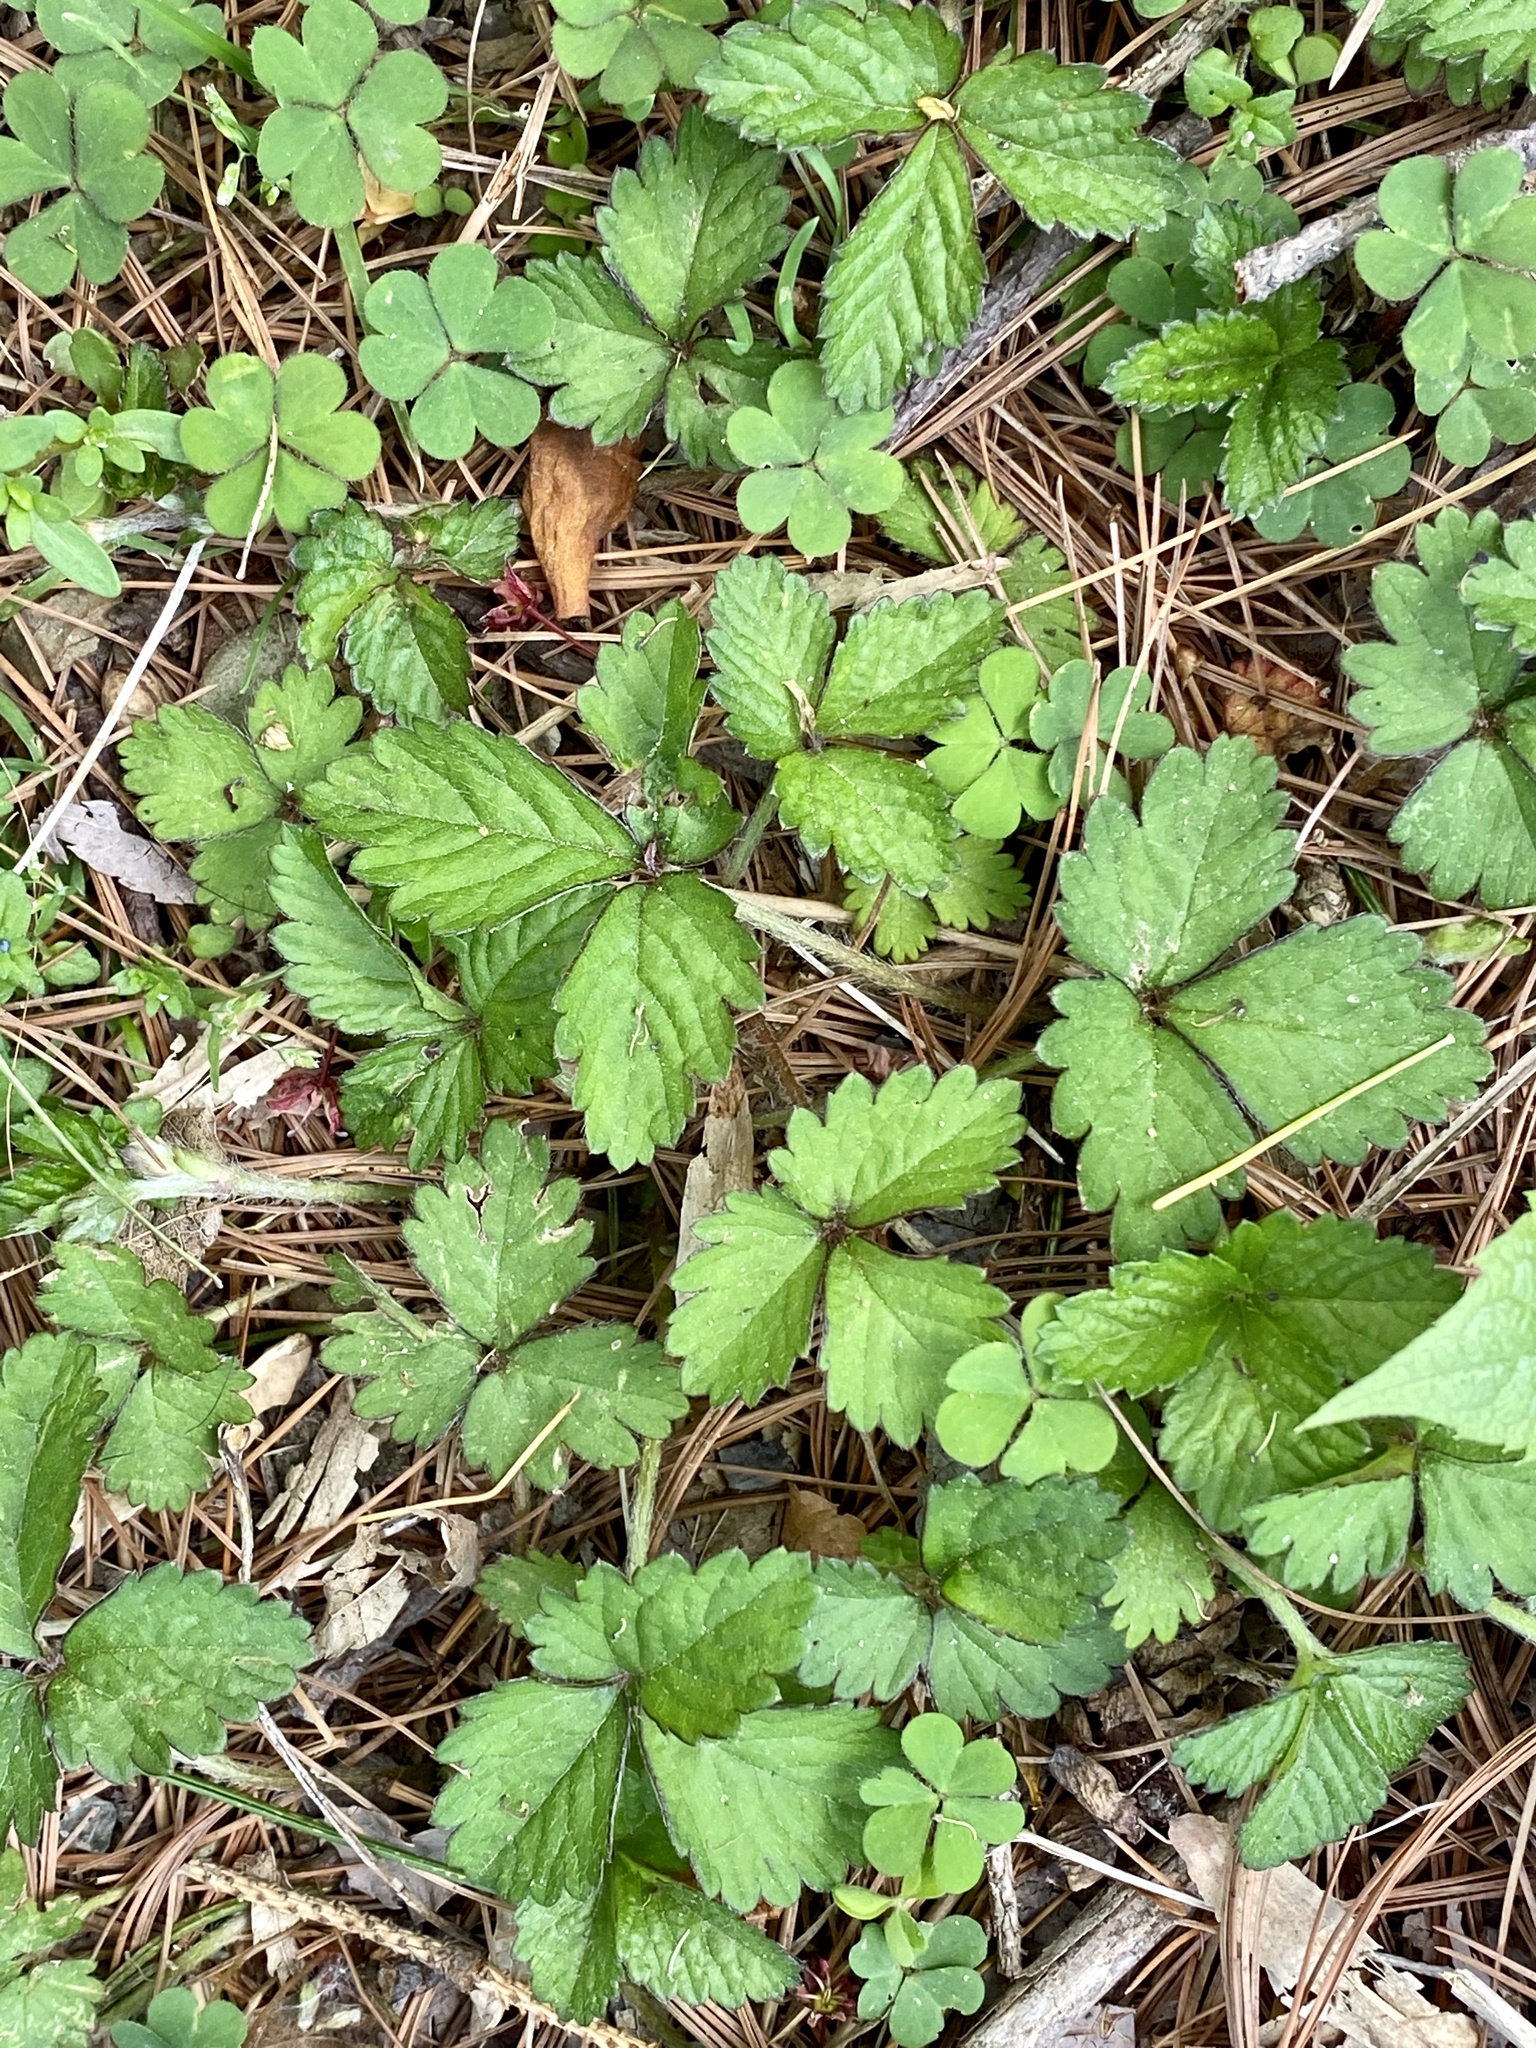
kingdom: Plantae
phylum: Tracheophyta
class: Magnoliopsida
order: Rosales
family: Rosaceae
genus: Potentilla
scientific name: Potentilla indica
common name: Yellow-flowered strawberry
